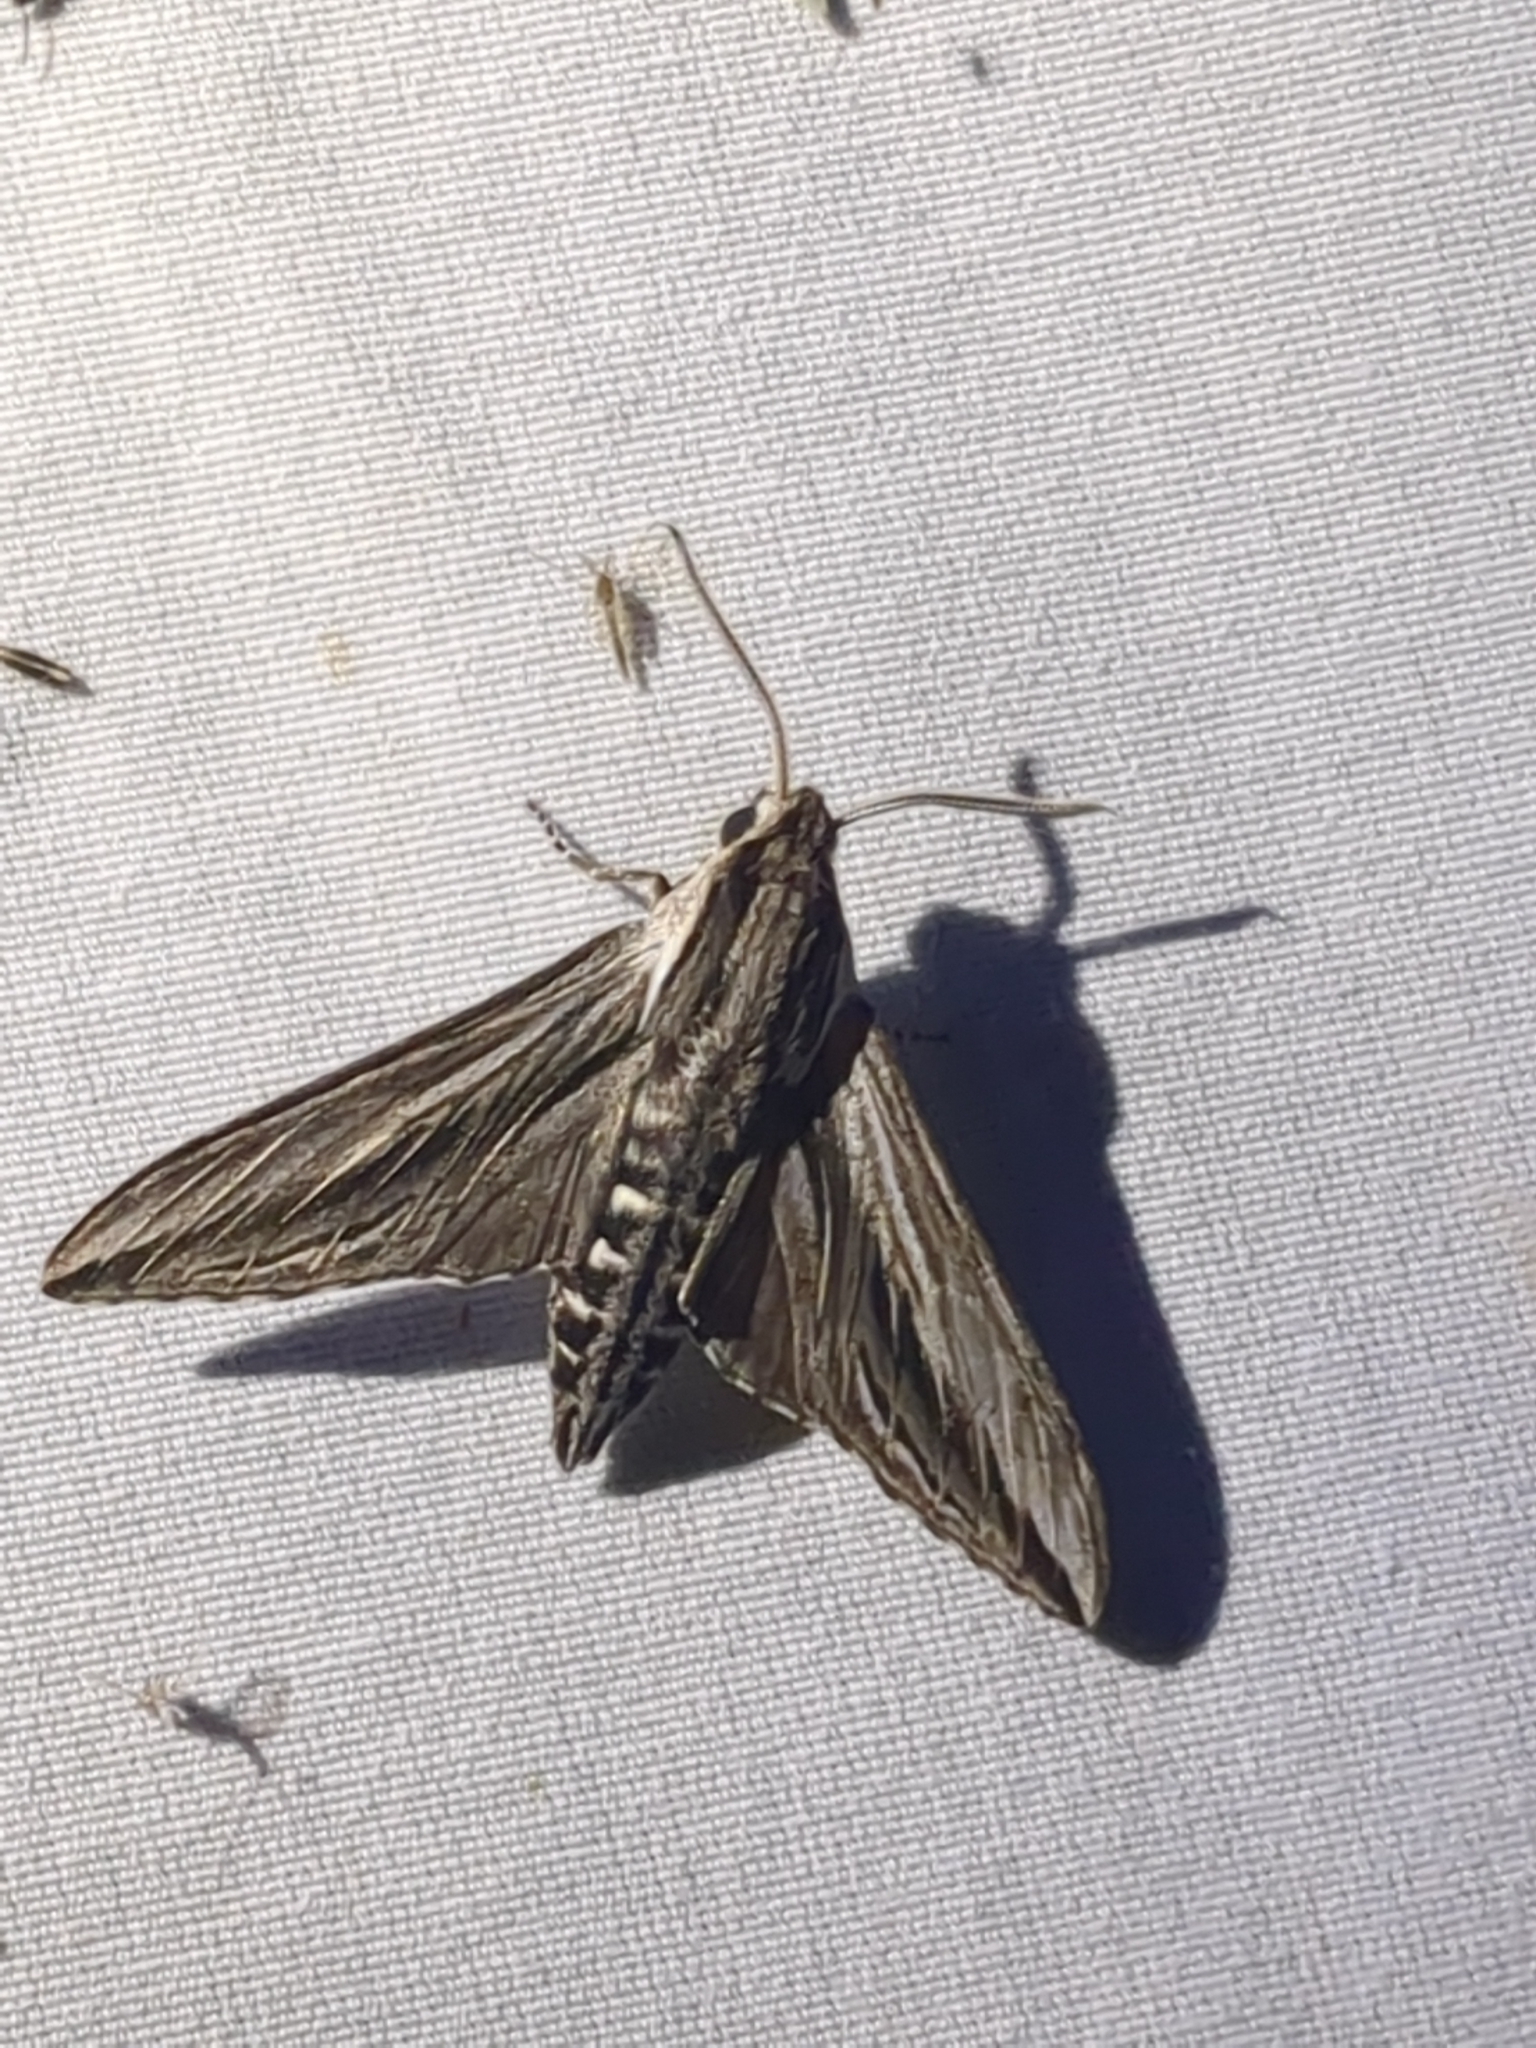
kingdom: Animalia
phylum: Arthropoda
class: Insecta
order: Lepidoptera
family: Sphingidae
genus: Sphinx
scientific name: Sphinx vanbuskirki
